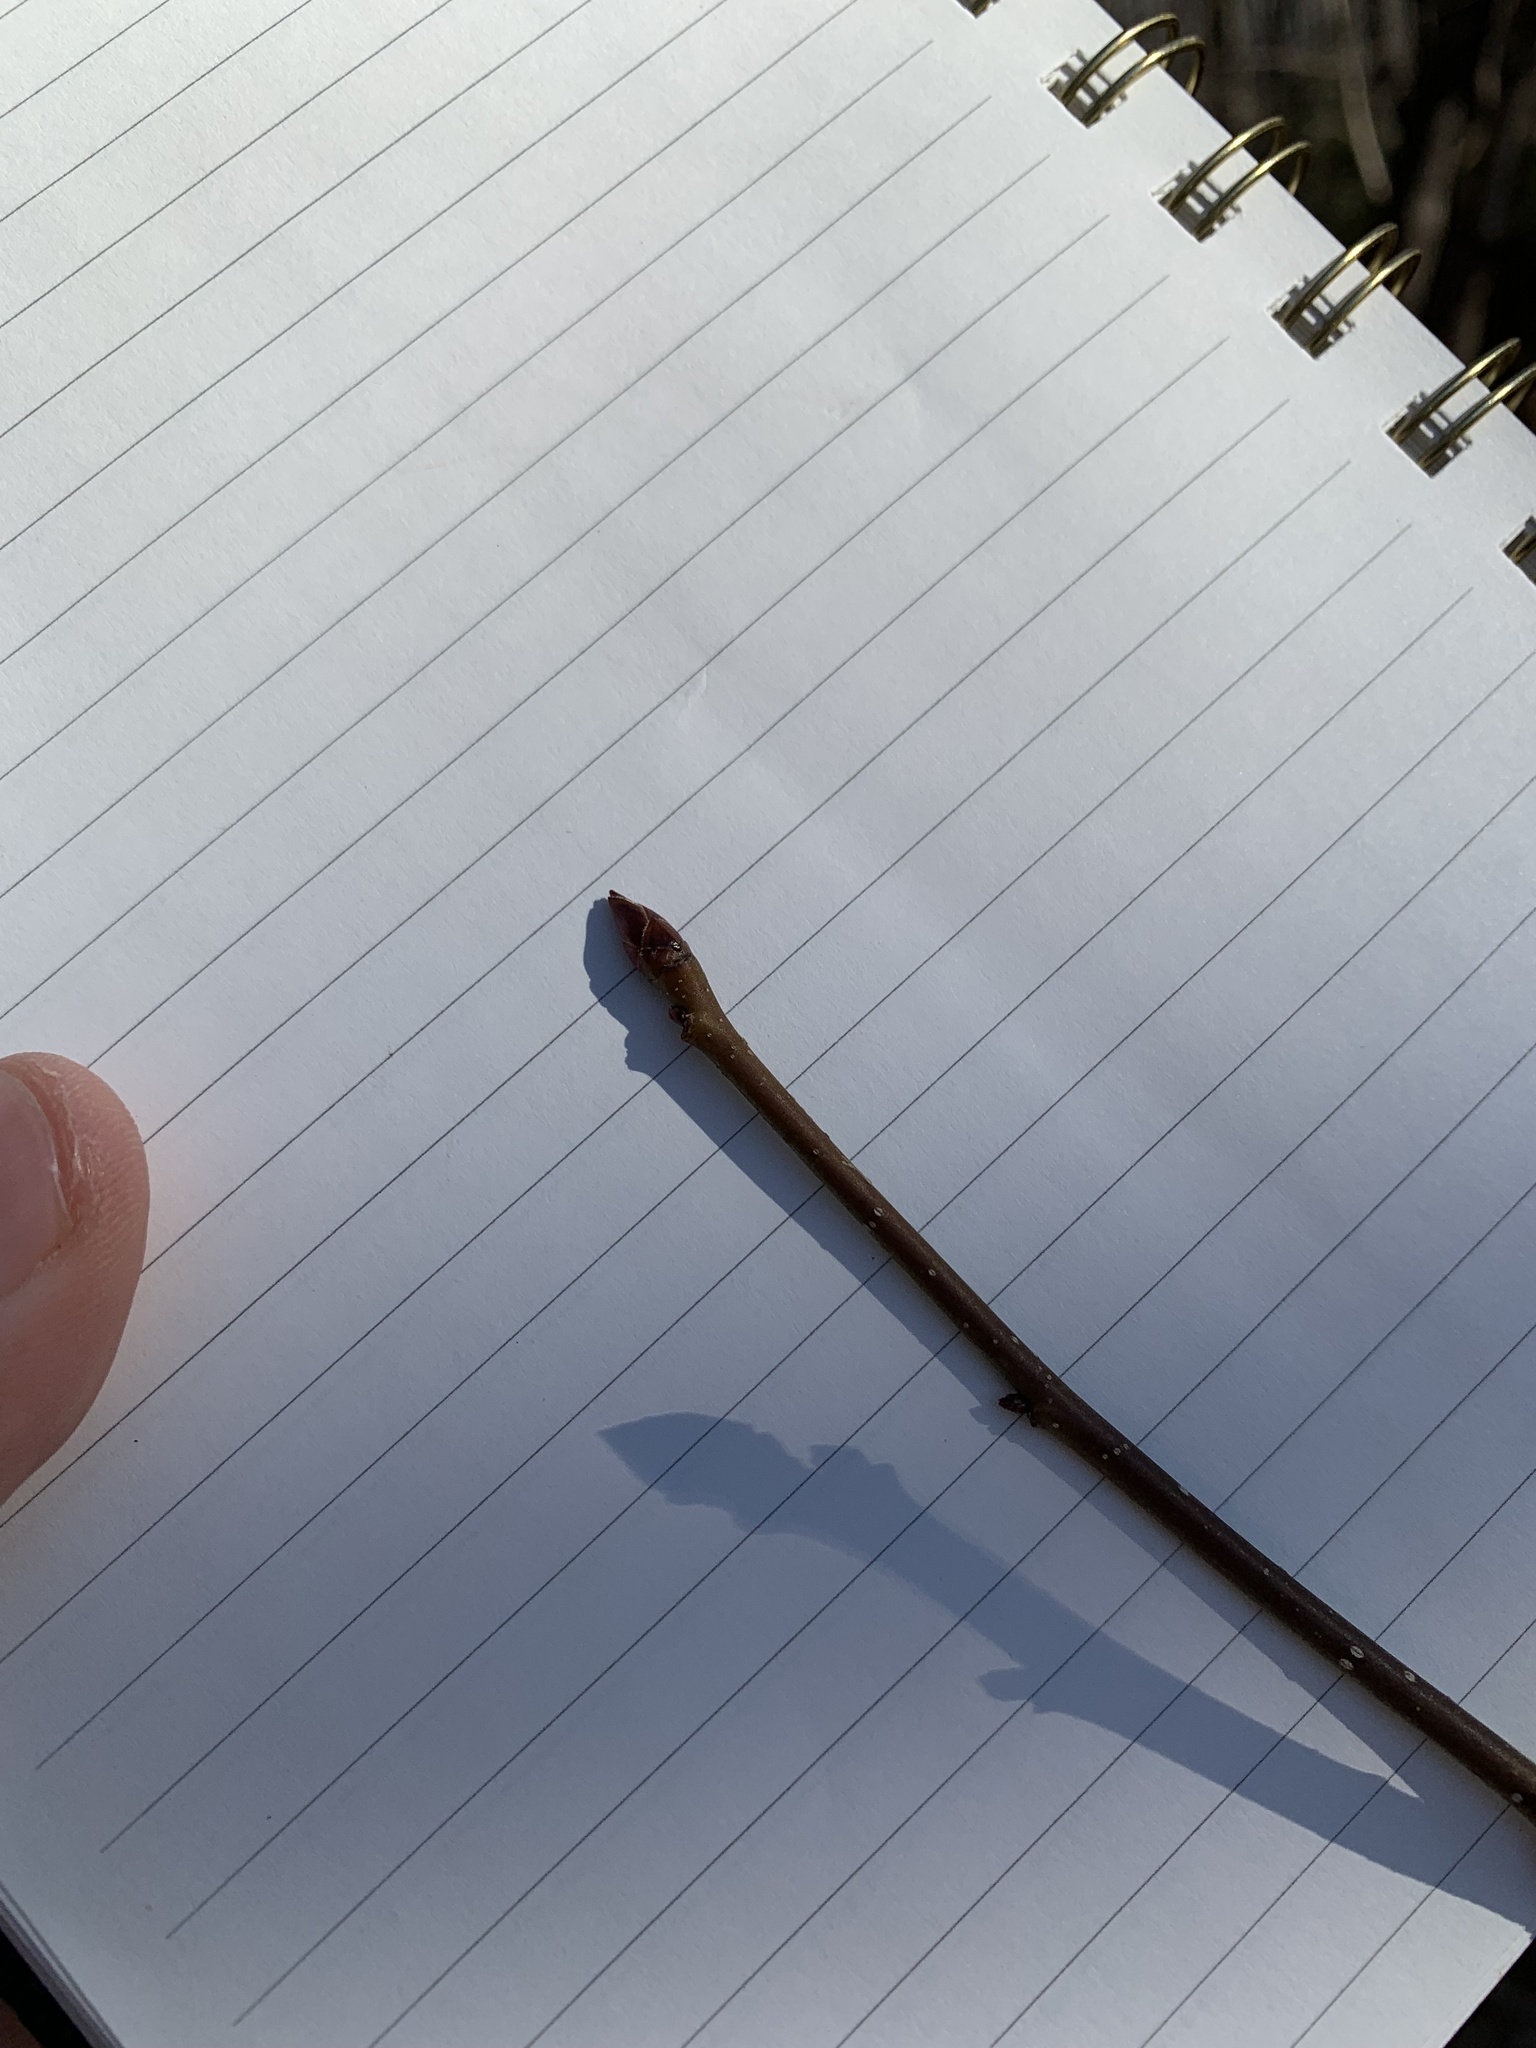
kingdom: Plantae
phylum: Tracheophyta
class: Magnoliopsida
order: Saxifragales
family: Altingiaceae
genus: Liquidambar
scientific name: Liquidambar styraciflua
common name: Sweet gum
